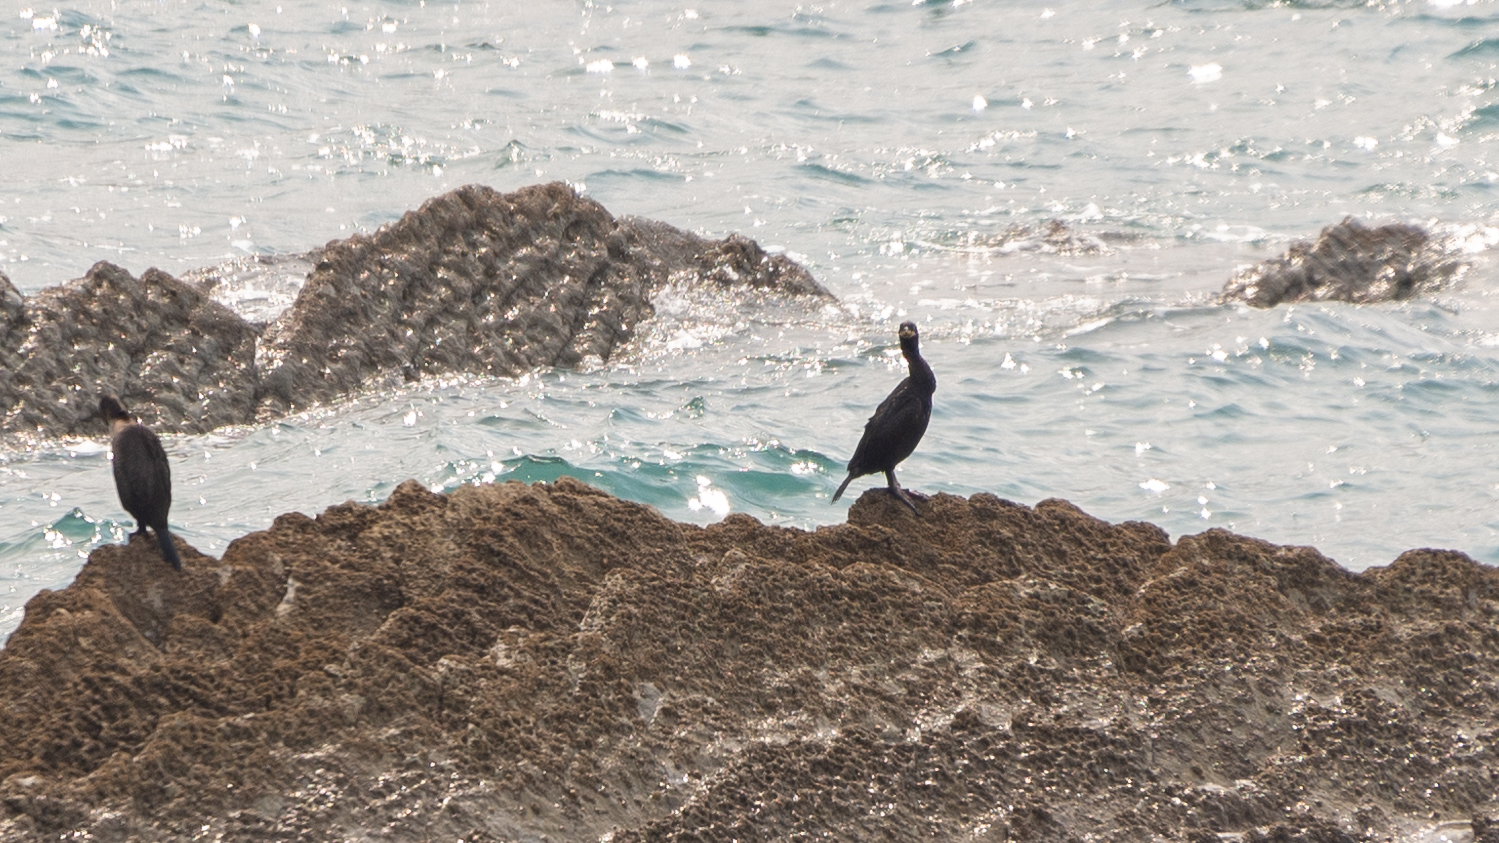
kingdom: Animalia
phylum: Chordata
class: Aves
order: Suliformes
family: Phalacrocoracidae
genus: Phalacrocorax
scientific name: Phalacrocorax aristotelis
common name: European shag
